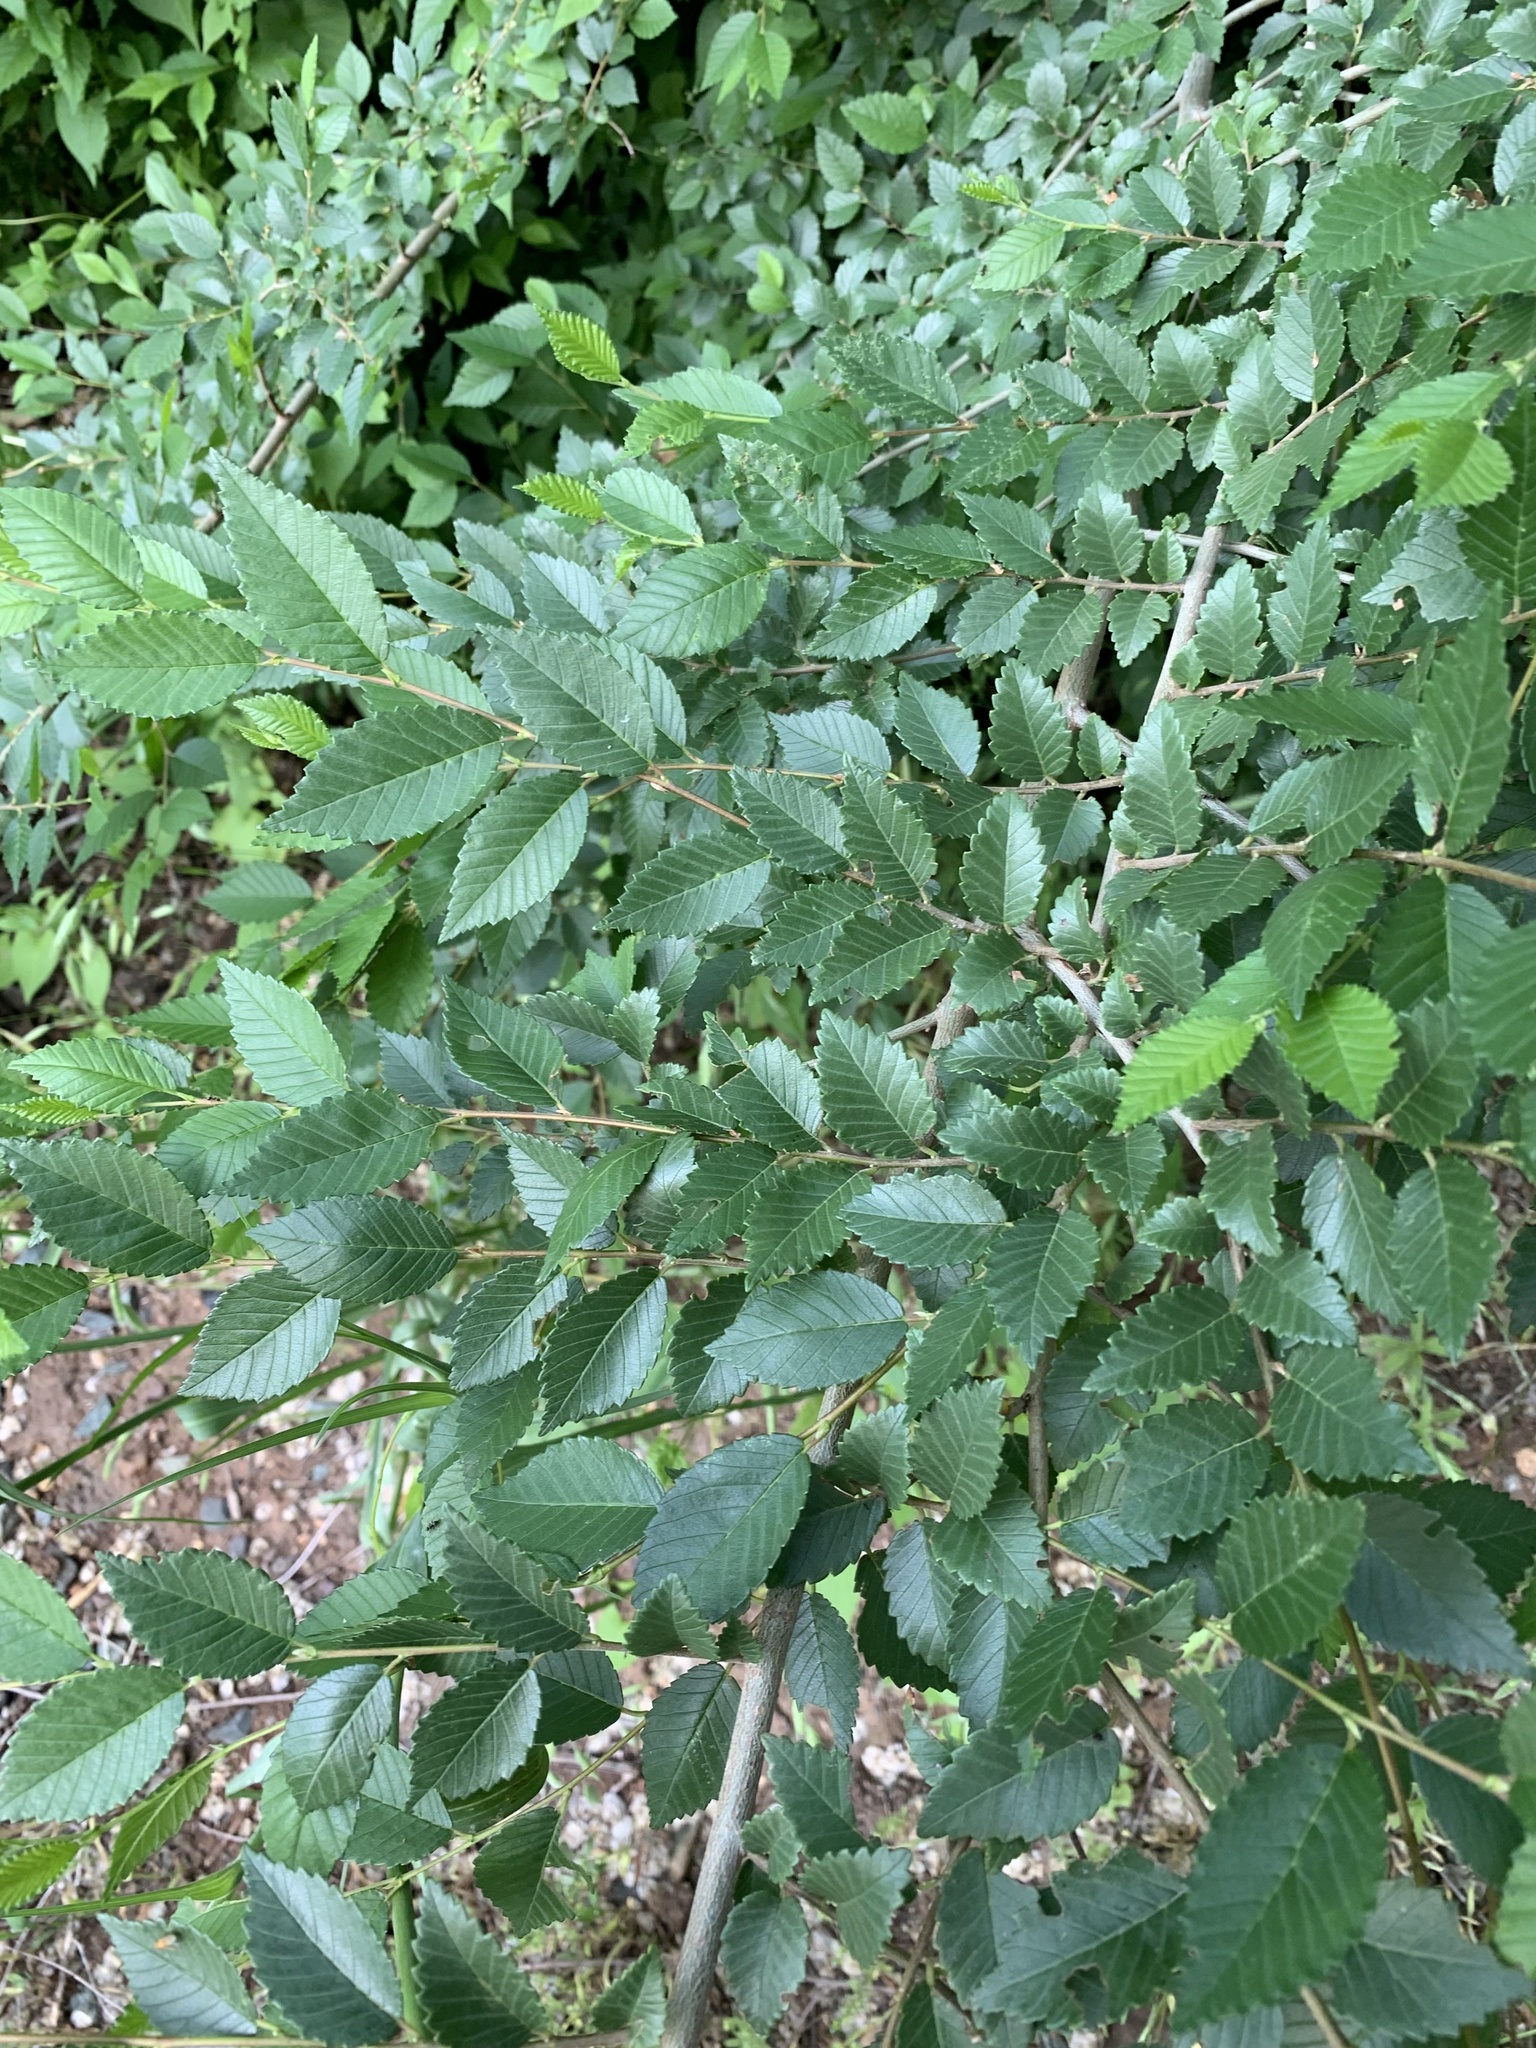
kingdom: Plantae
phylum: Tracheophyta
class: Magnoliopsida
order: Rosales
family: Ulmaceae
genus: Ulmus
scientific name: Ulmus pumila
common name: Siberian elm
